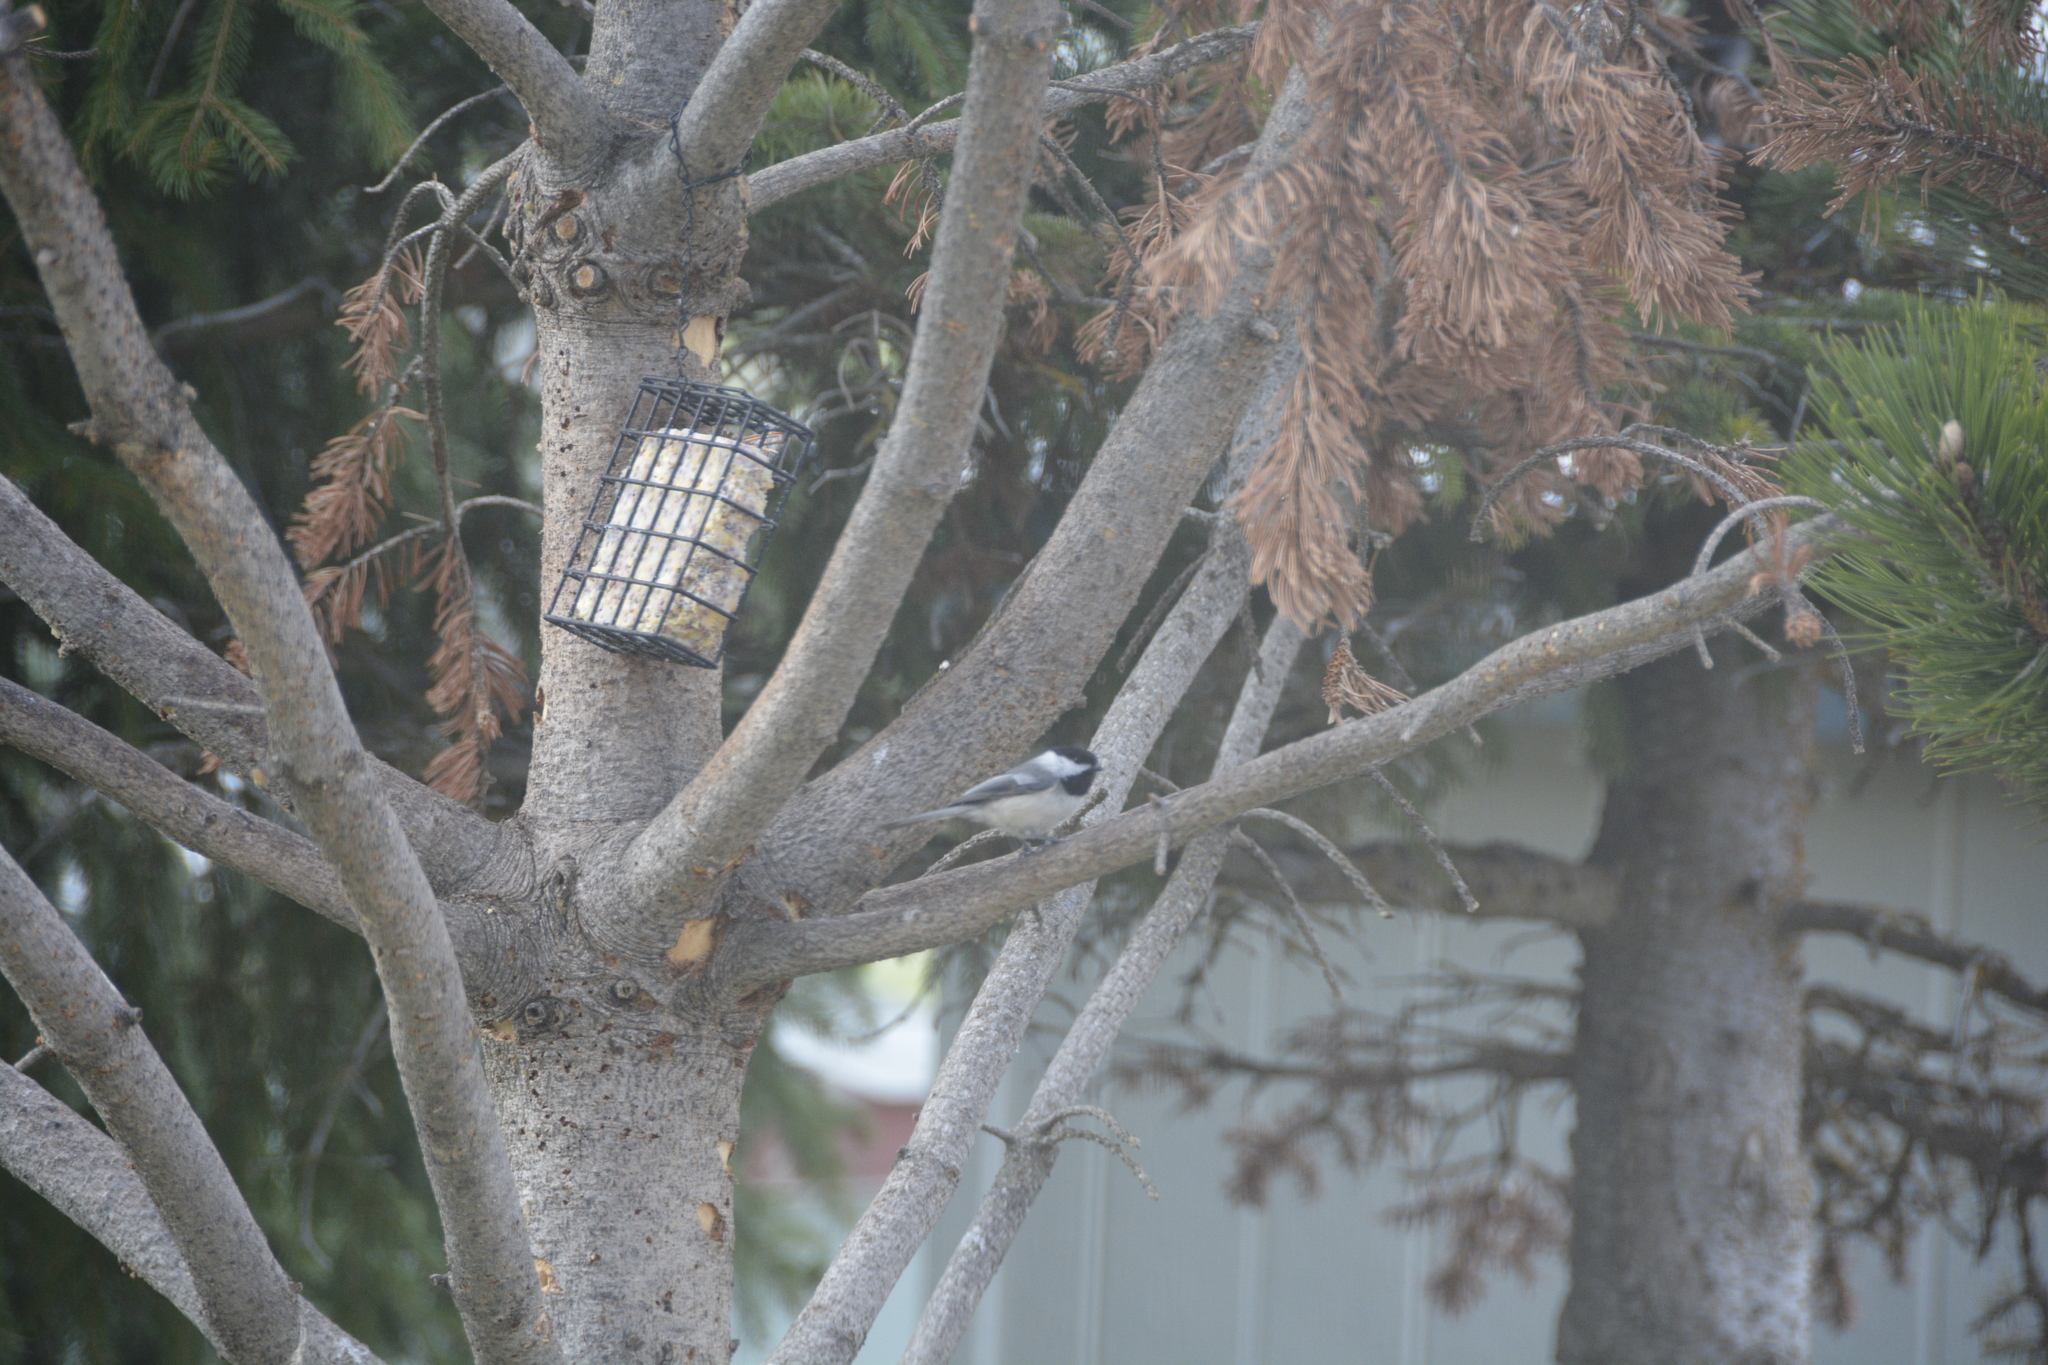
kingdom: Animalia
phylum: Chordata
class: Aves
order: Passeriformes
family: Paridae
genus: Poecile
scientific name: Poecile atricapillus
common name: Black-capped chickadee
